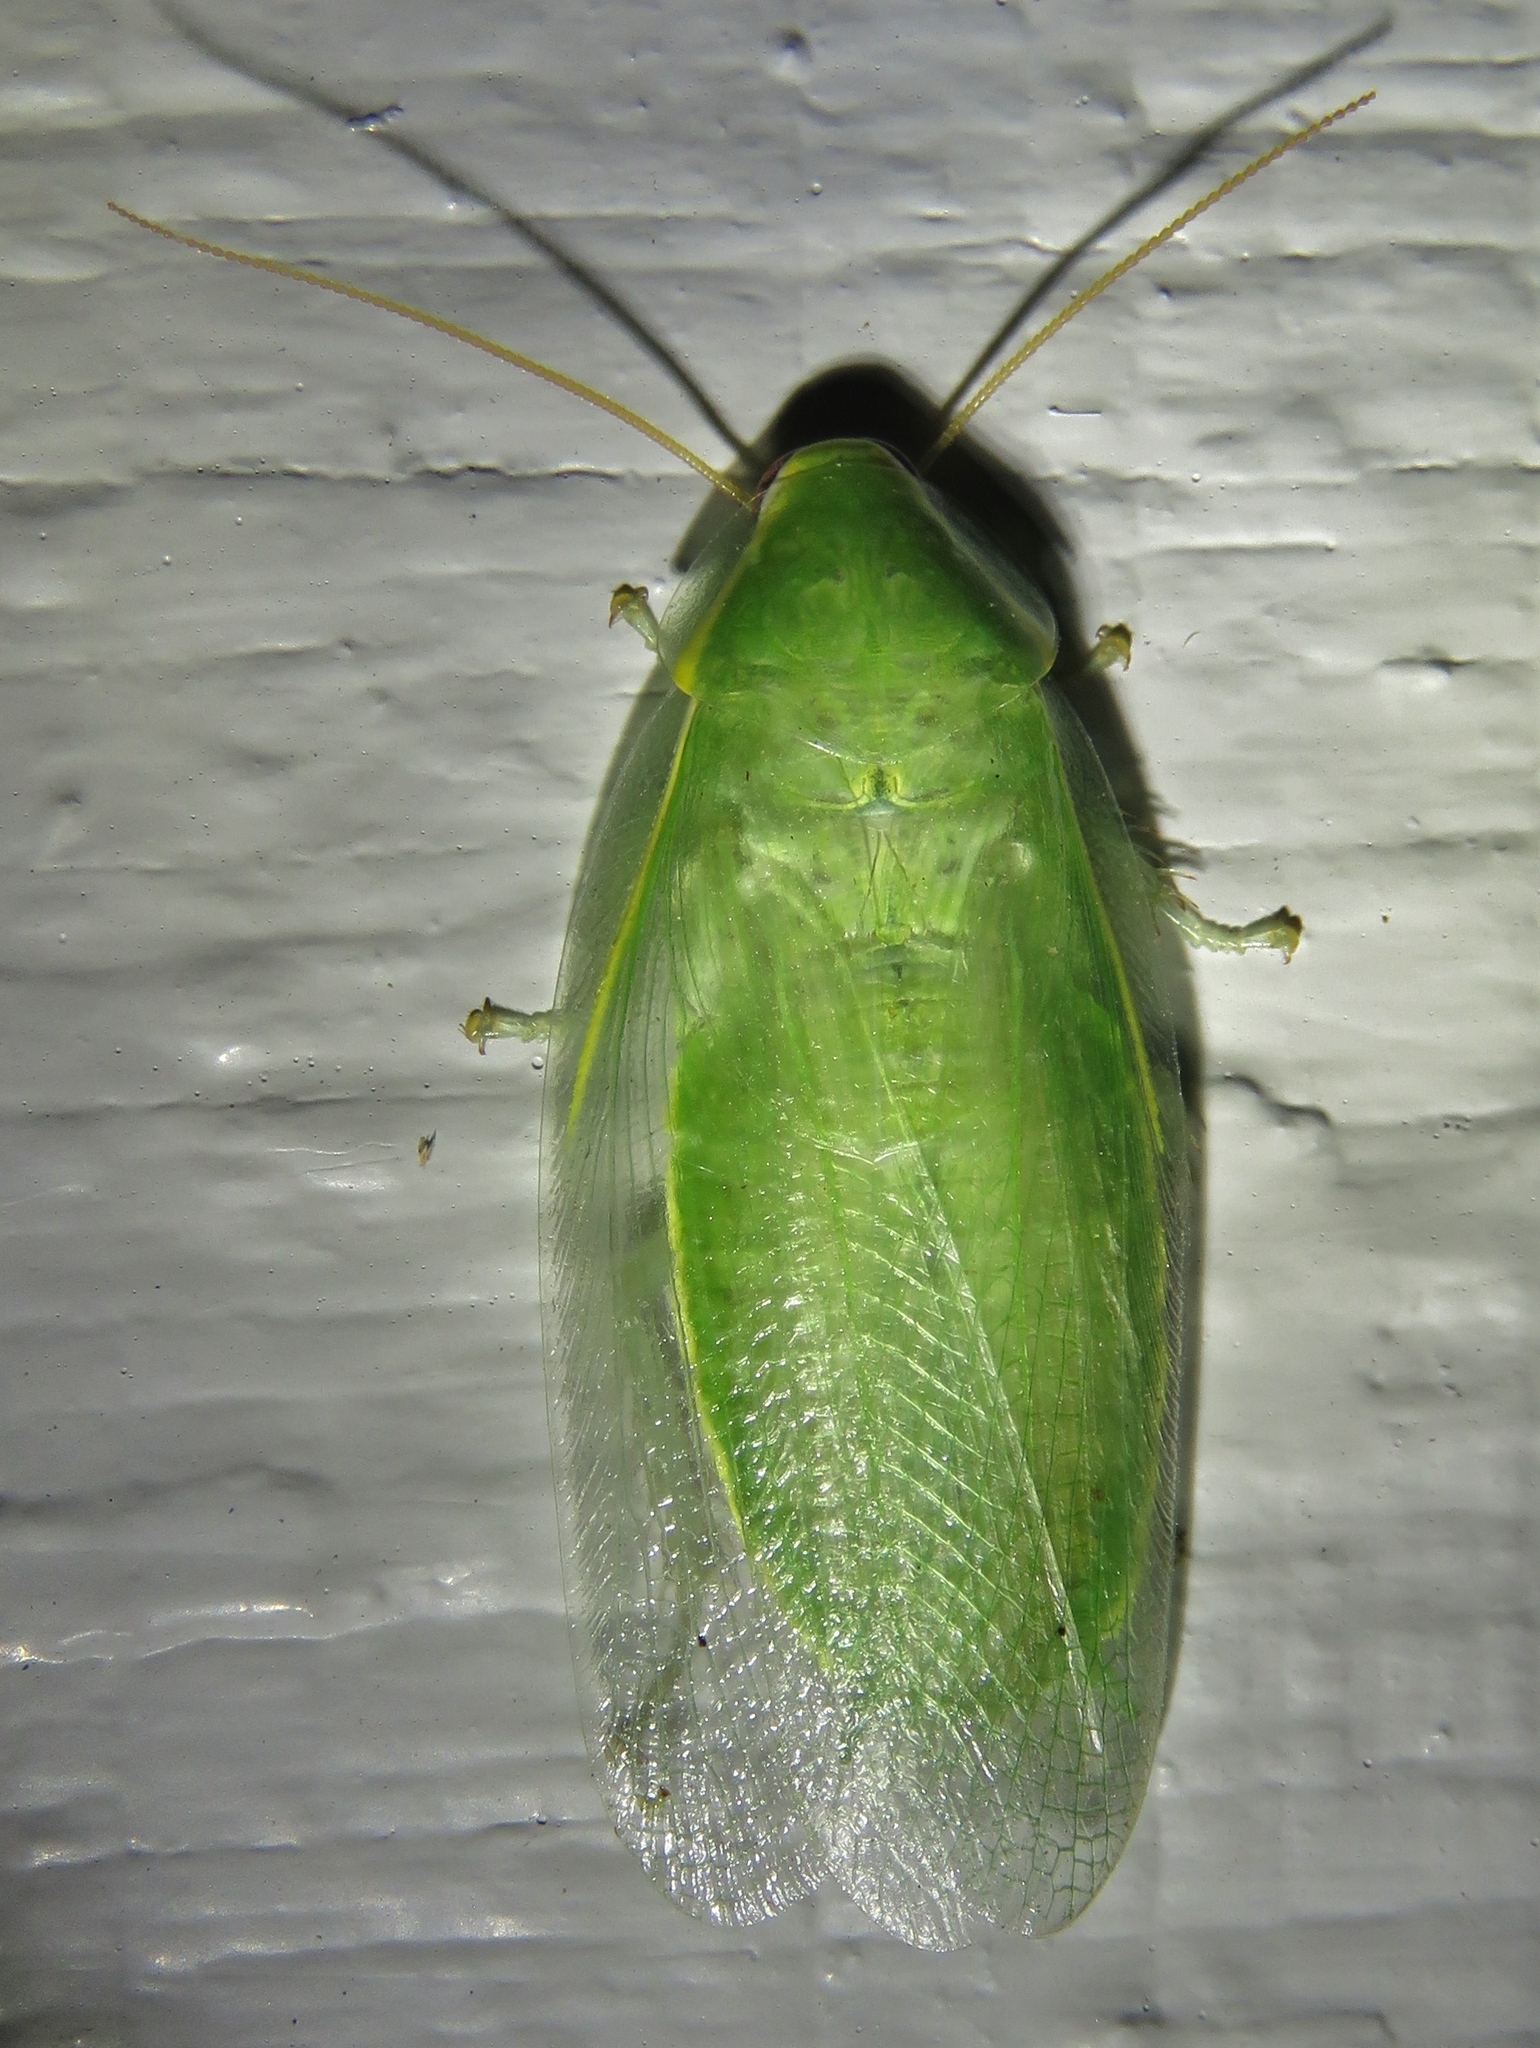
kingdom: Animalia
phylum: Arthropoda
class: Insecta
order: Blattodea
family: Blaberidae
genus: Panchlora
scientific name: Panchlora nivea
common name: Cuban cockroach
